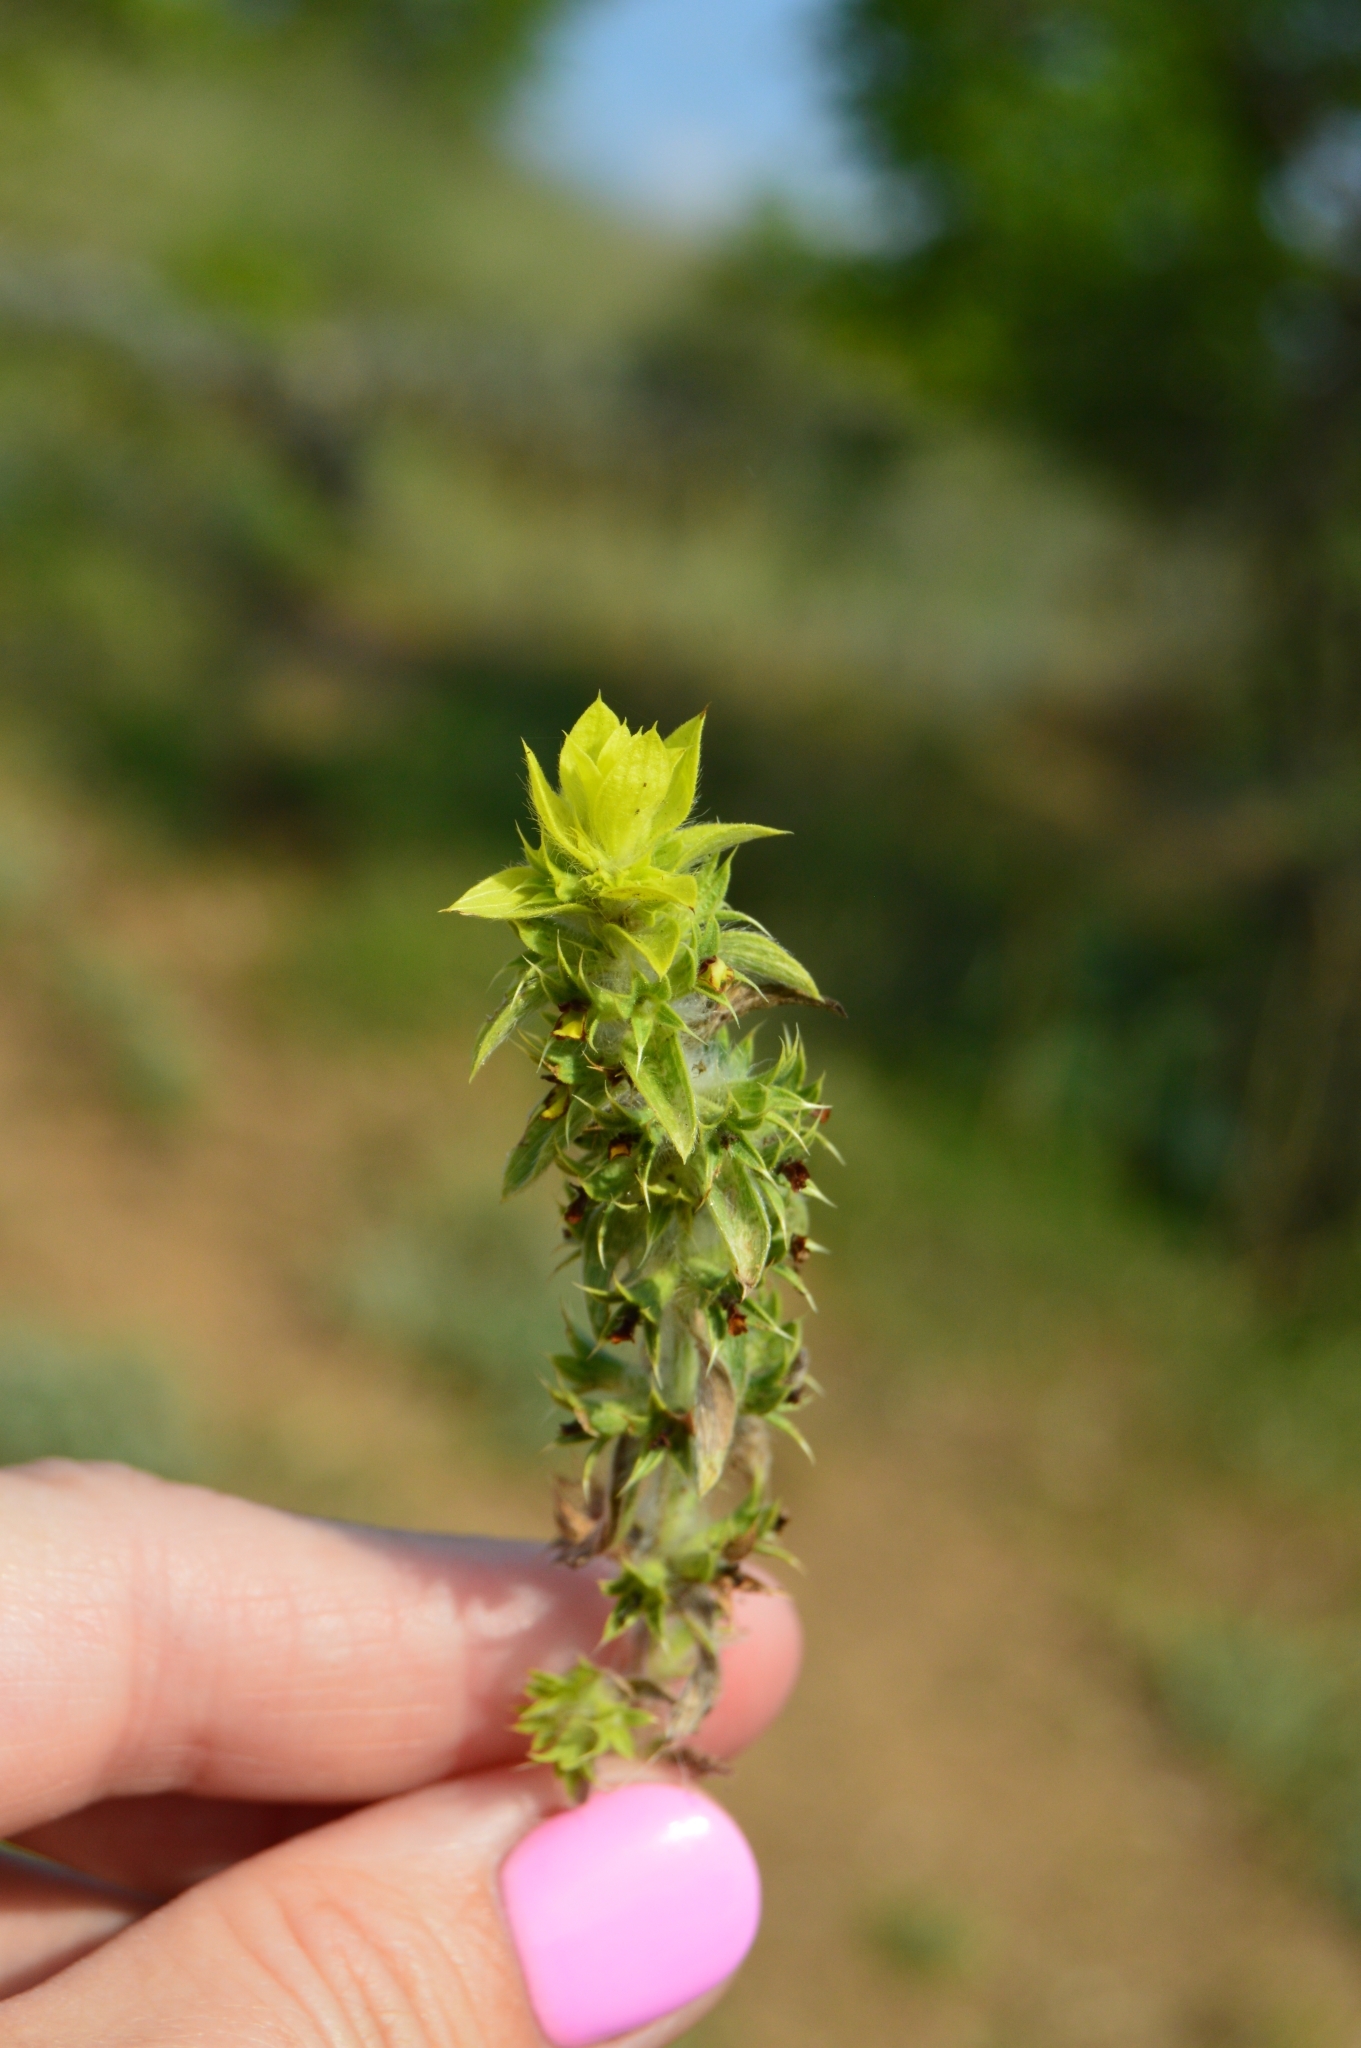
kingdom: Plantae
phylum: Tracheophyta
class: Magnoliopsida
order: Lamiales
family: Lamiaceae
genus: Sideritis
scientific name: Sideritis montana
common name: Mountain ironwort
